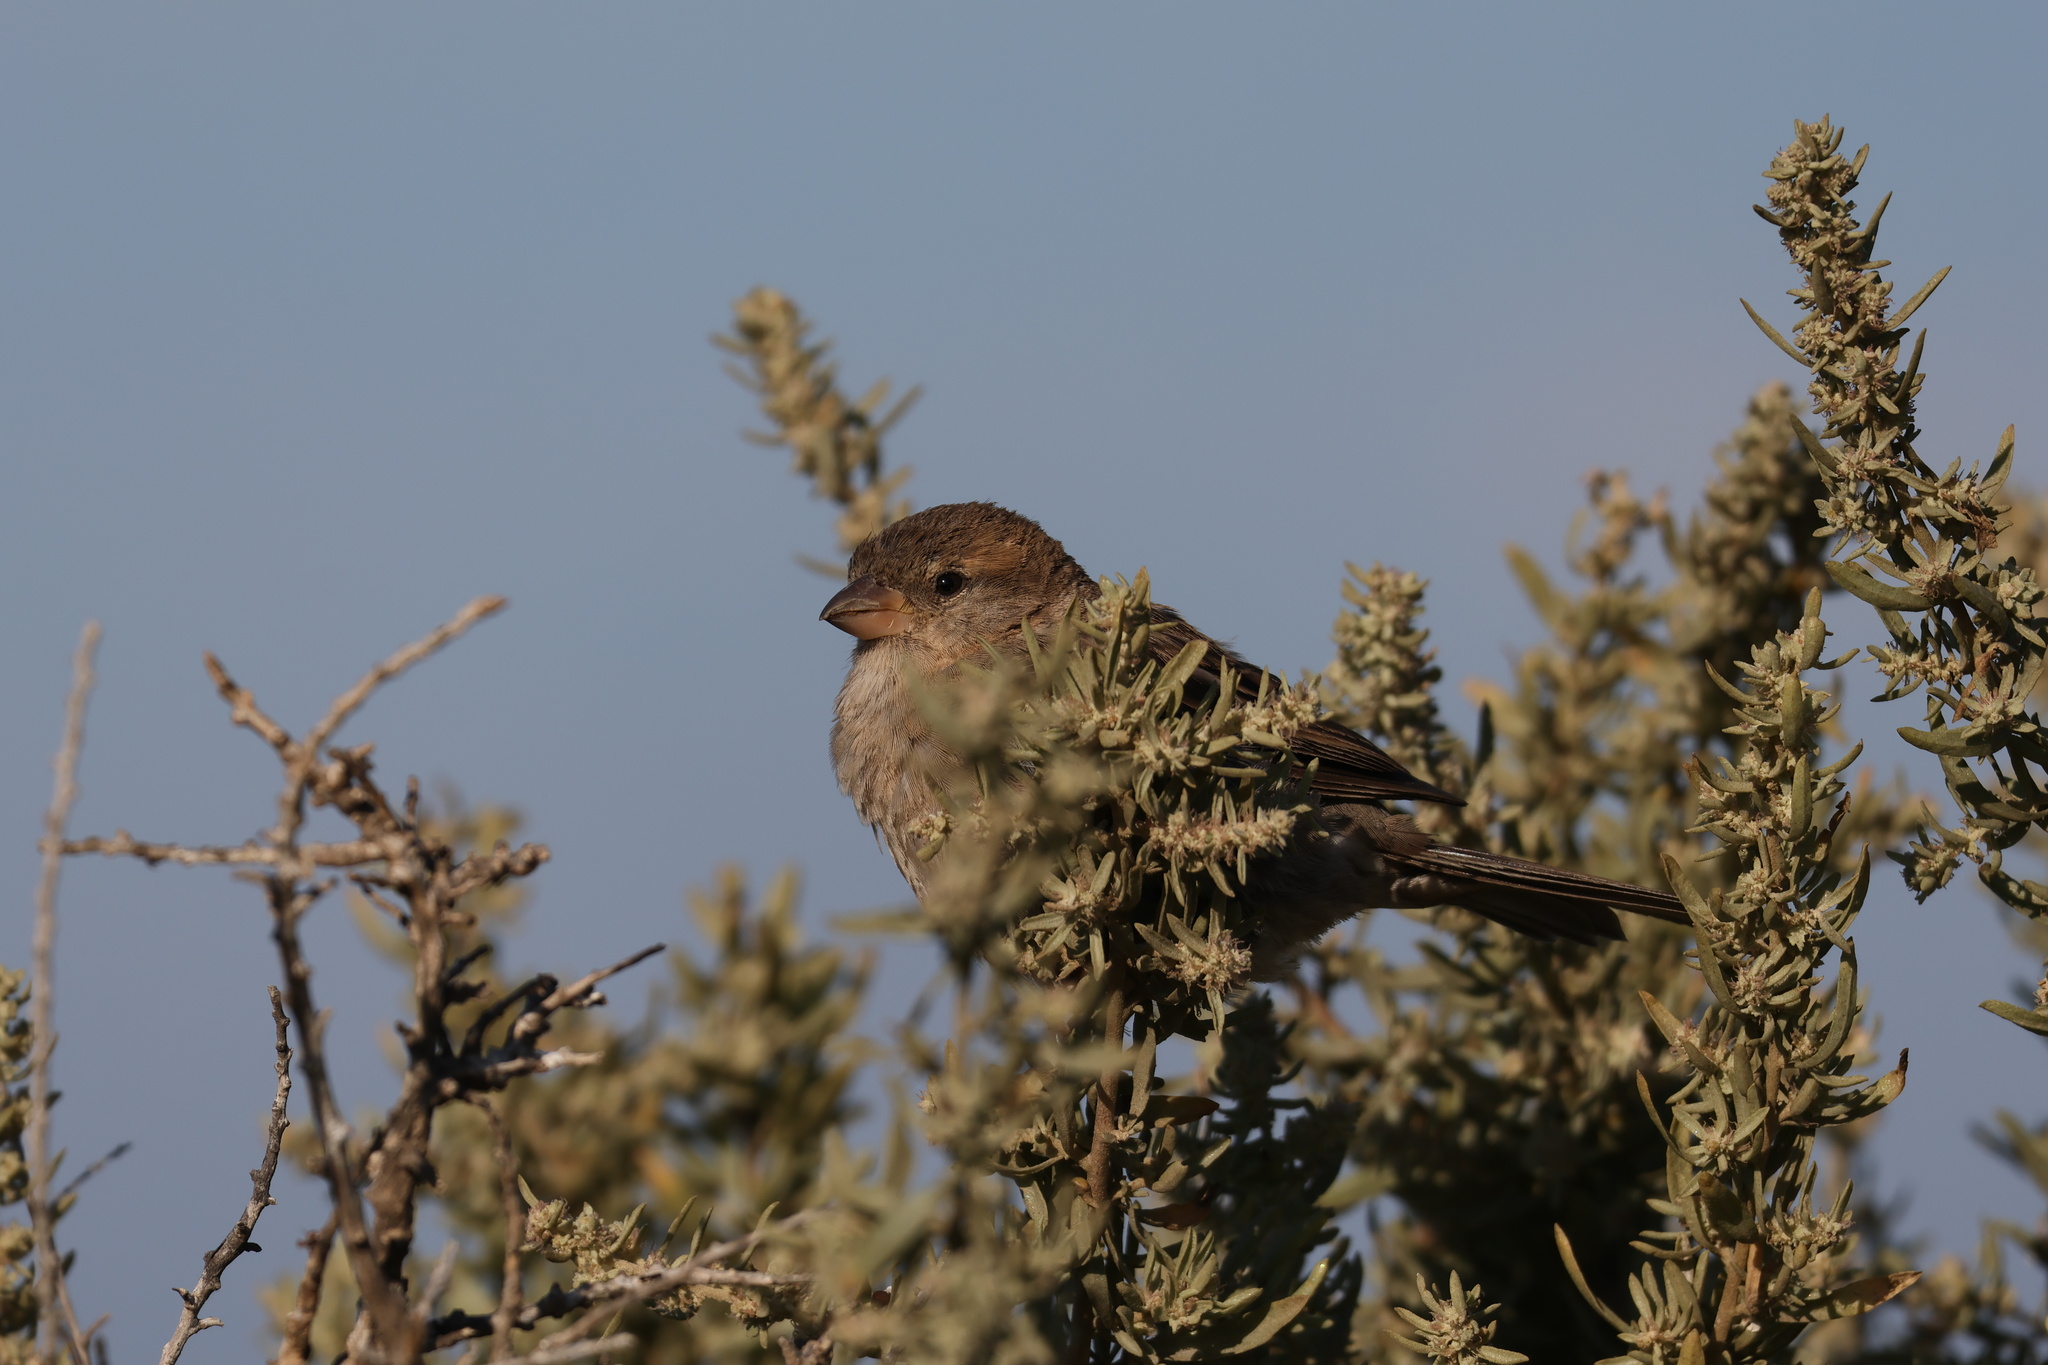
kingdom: Animalia
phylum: Chordata
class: Aves
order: Passeriformes
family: Passeridae
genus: Passer
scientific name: Passer domesticus
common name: House sparrow
